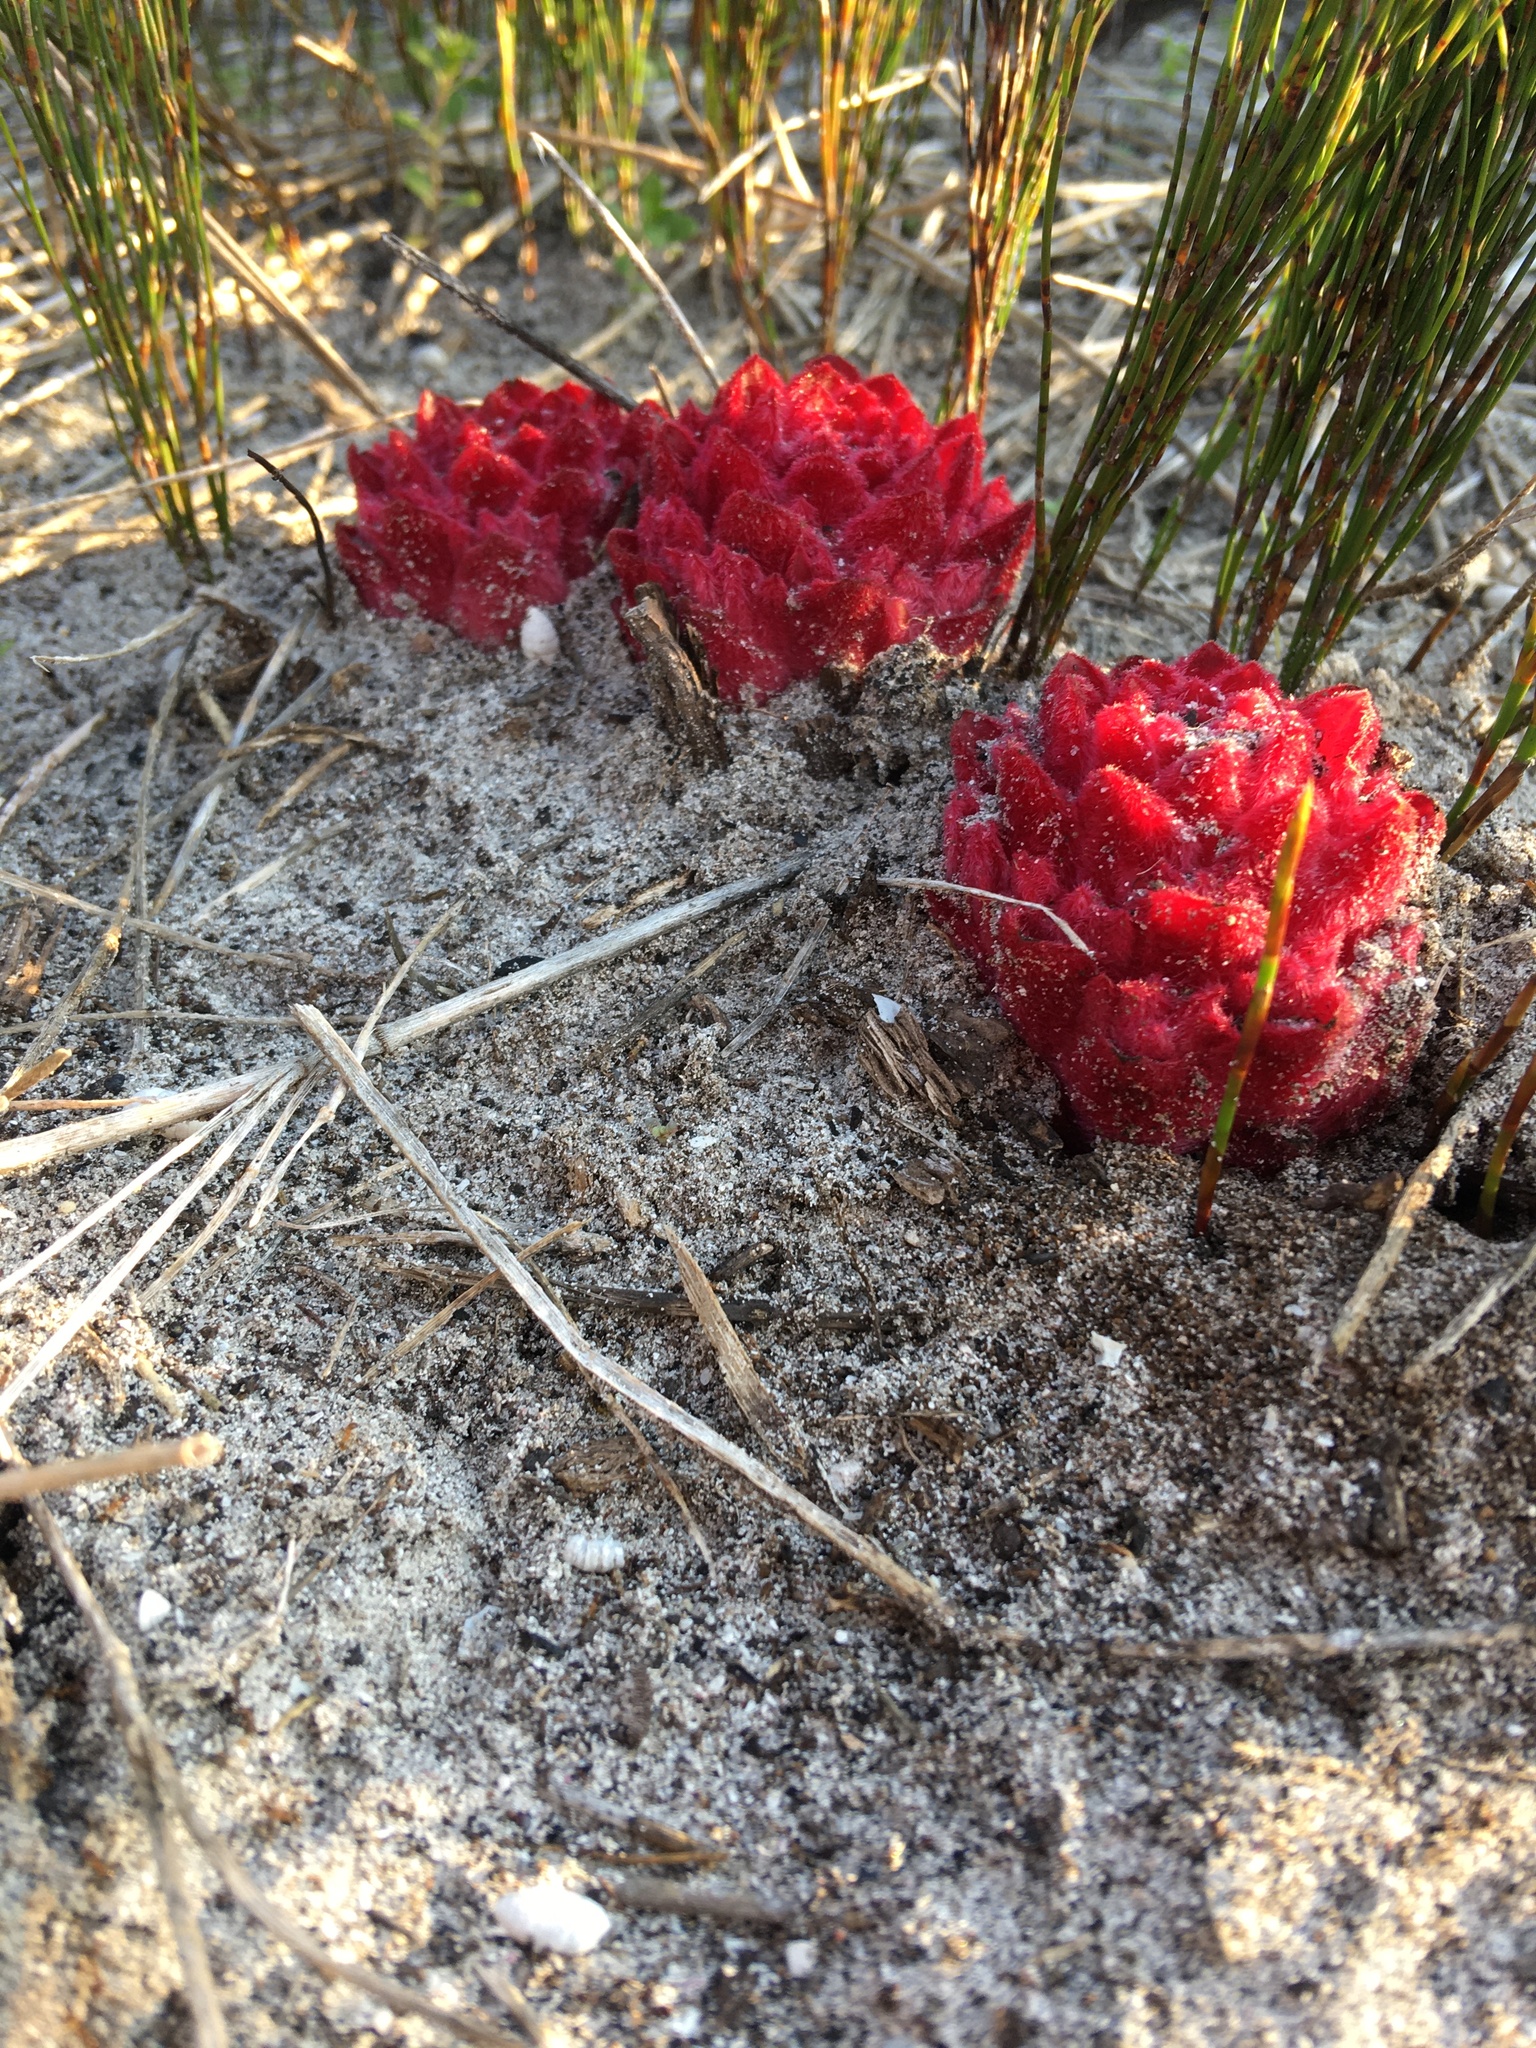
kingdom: Plantae
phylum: Tracheophyta
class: Magnoliopsida
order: Lamiales
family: Orobanchaceae
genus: Hyobanche
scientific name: Hyobanche sanguinea
